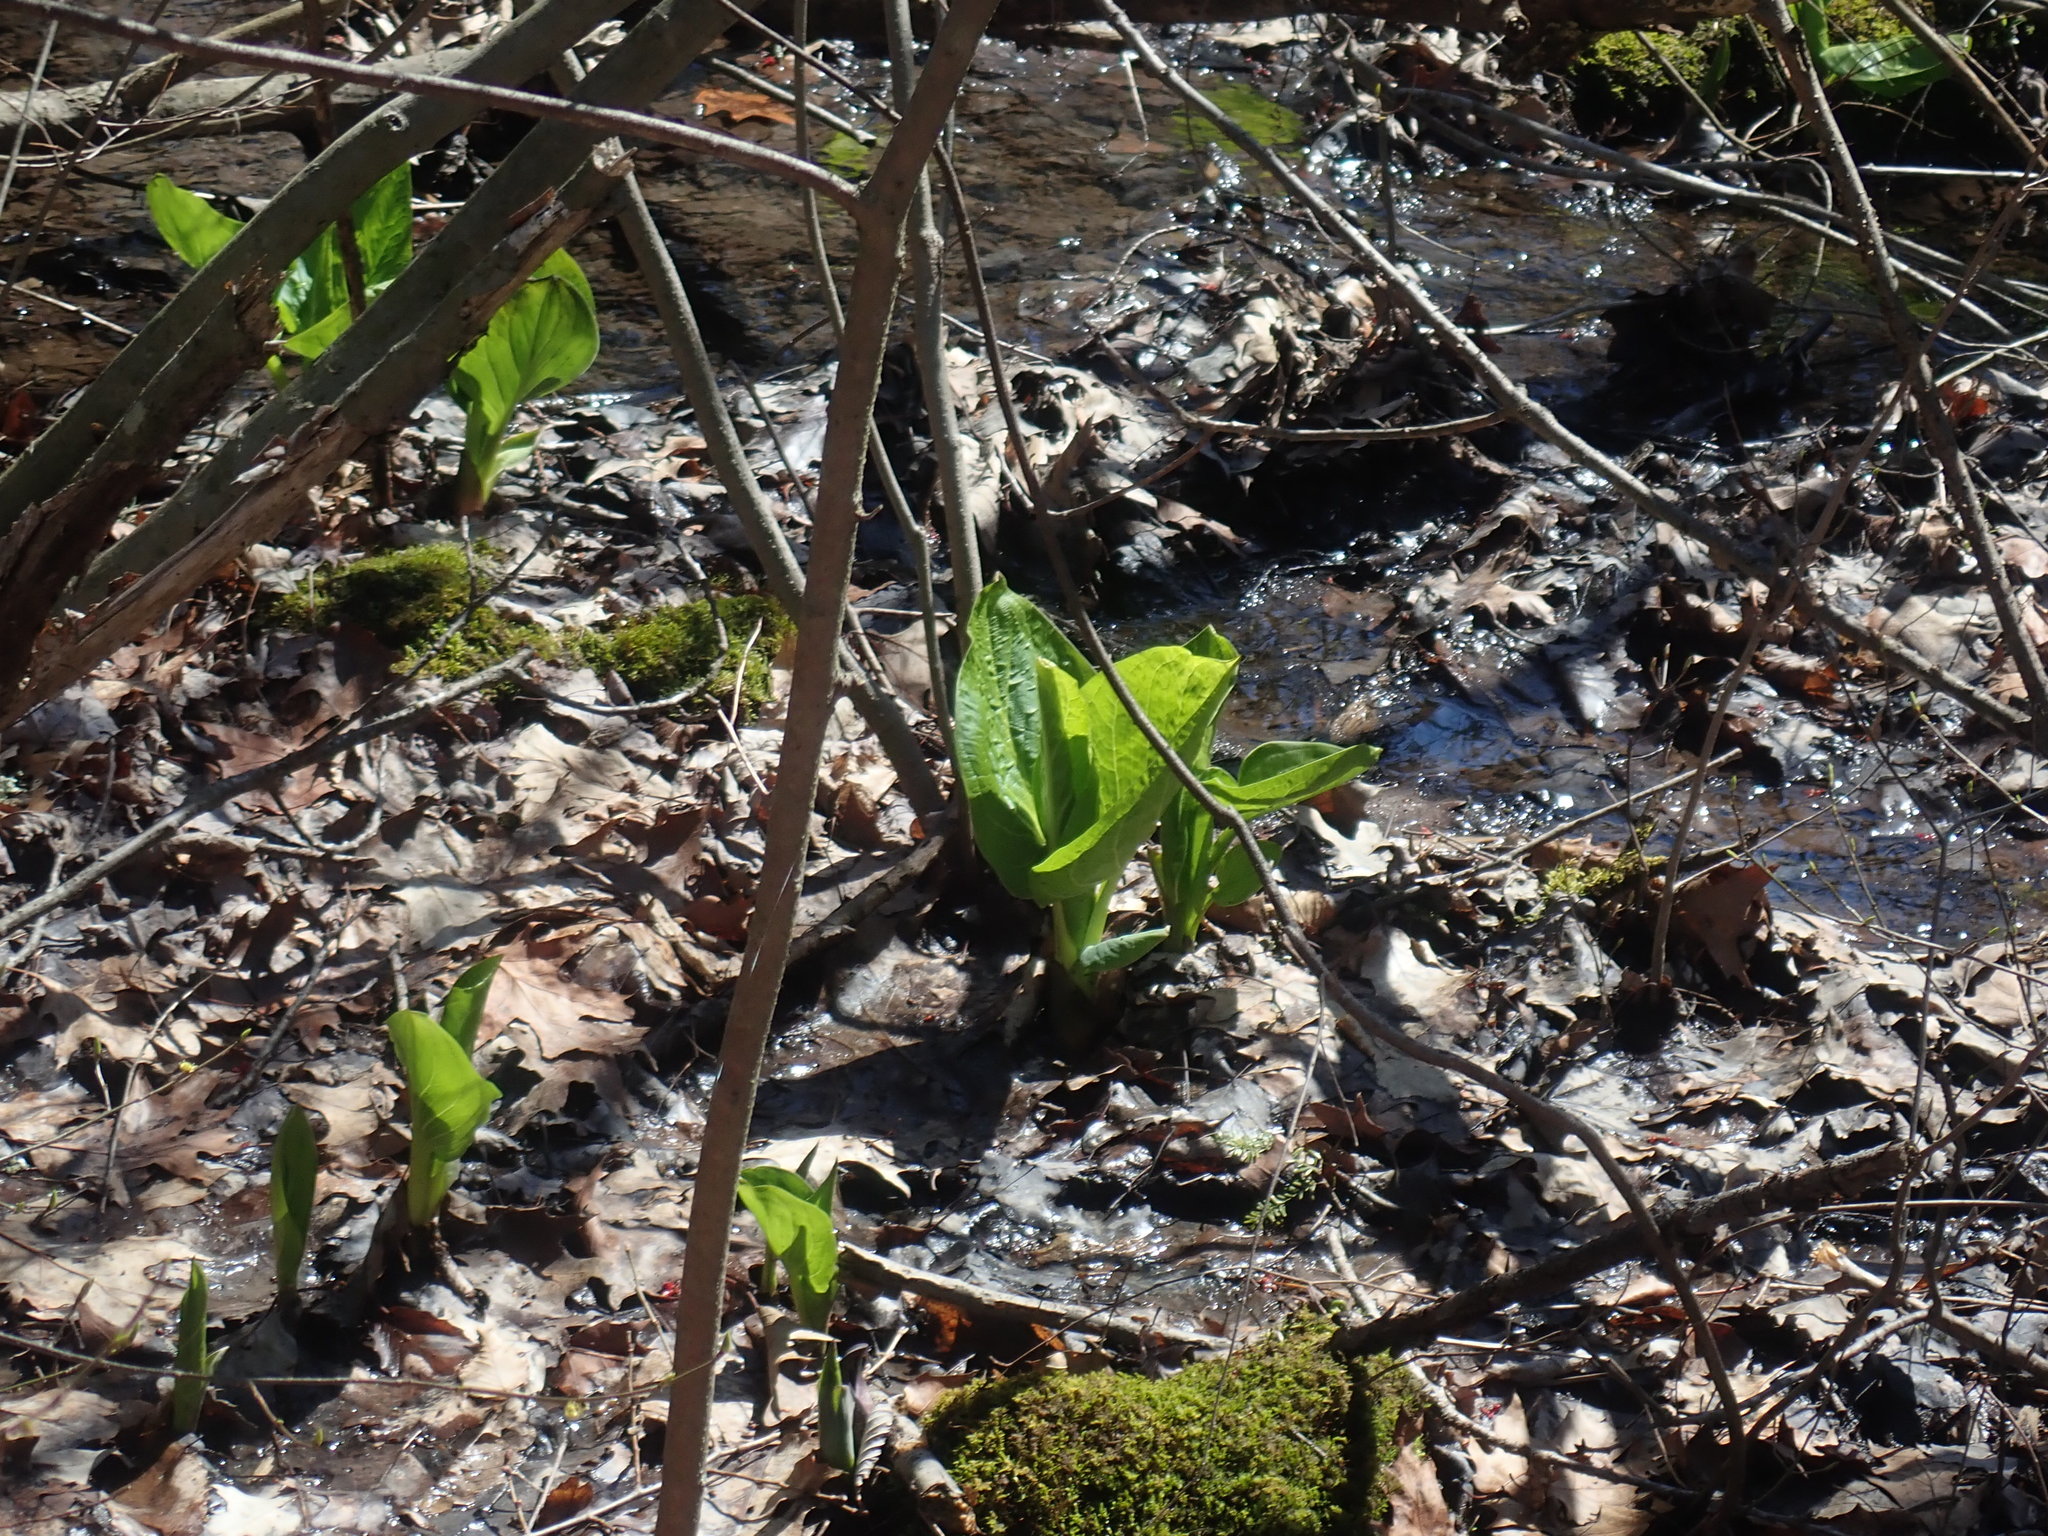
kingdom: Plantae
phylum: Tracheophyta
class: Liliopsida
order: Alismatales
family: Araceae
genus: Symplocarpus
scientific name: Symplocarpus foetidus
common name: Eastern skunk cabbage
